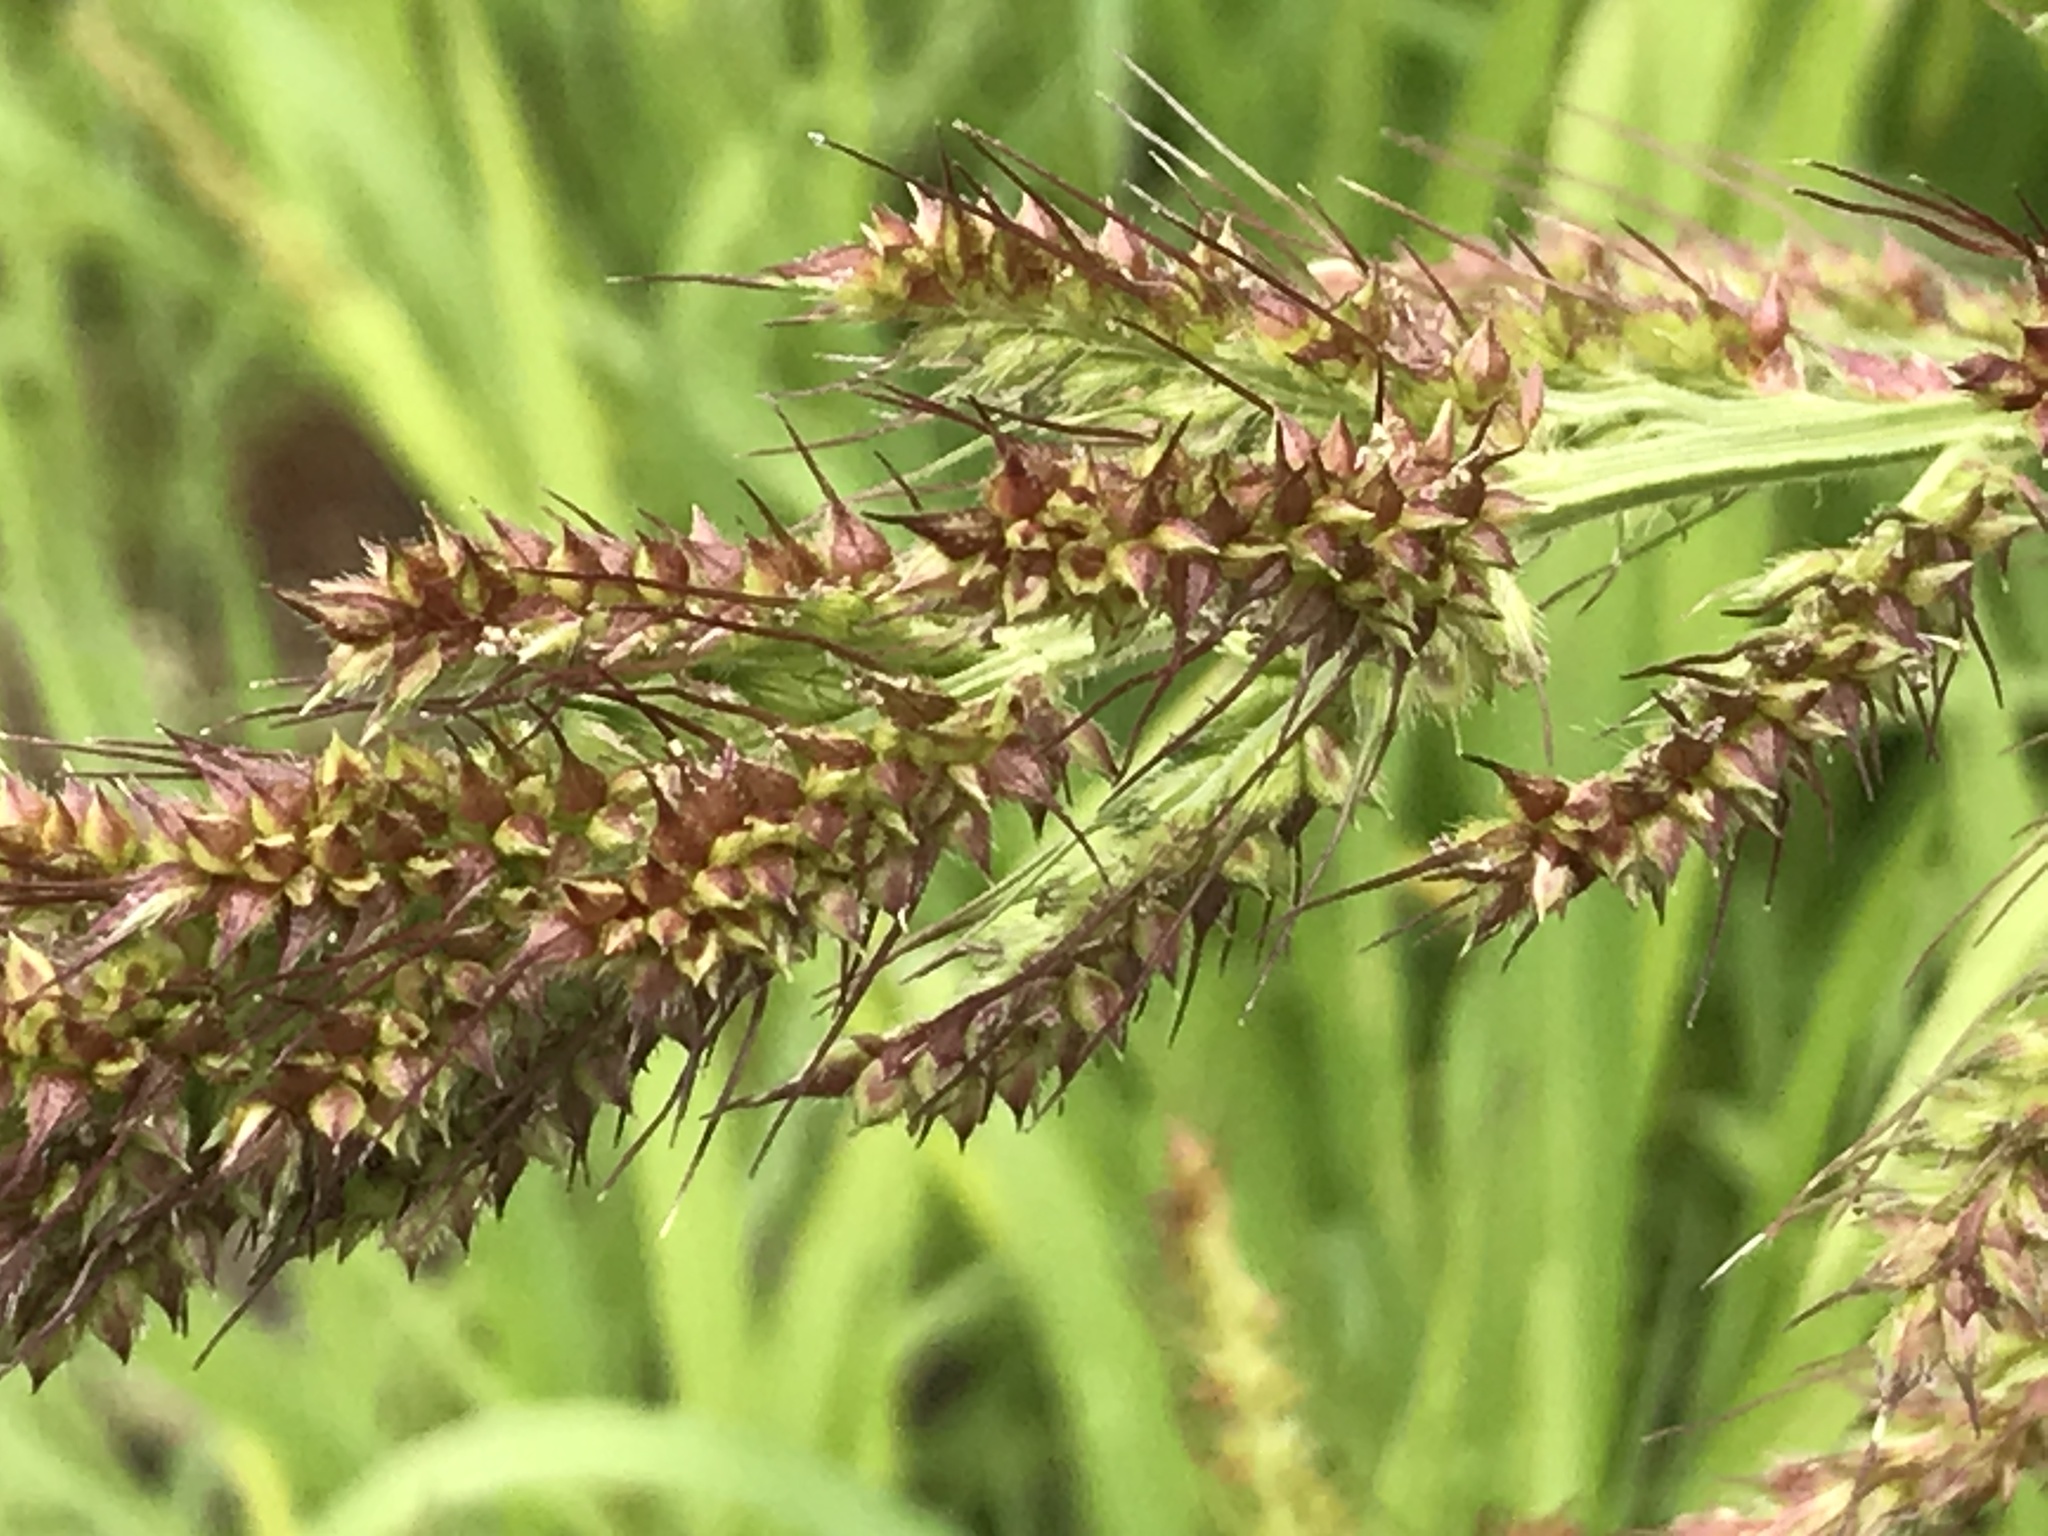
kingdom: Plantae
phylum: Tracheophyta
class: Liliopsida
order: Poales
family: Poaceae
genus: Echinochloa
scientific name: Echinochloa crus-galli
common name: Cockspur
